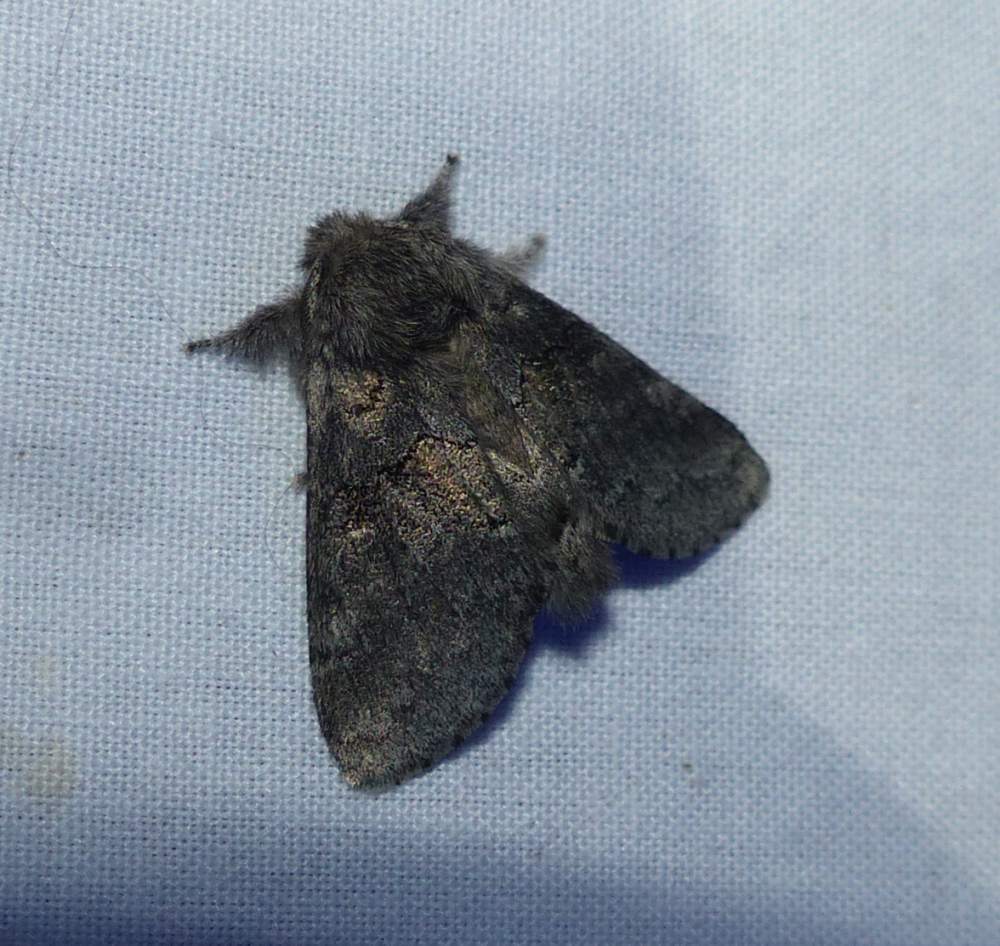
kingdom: Animalia
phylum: Arthropoda
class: Insecta
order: Lepidoptera
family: Notodontidae
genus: Gluphisia
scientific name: Gluphisia septentrionis
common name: Common gluphisia
